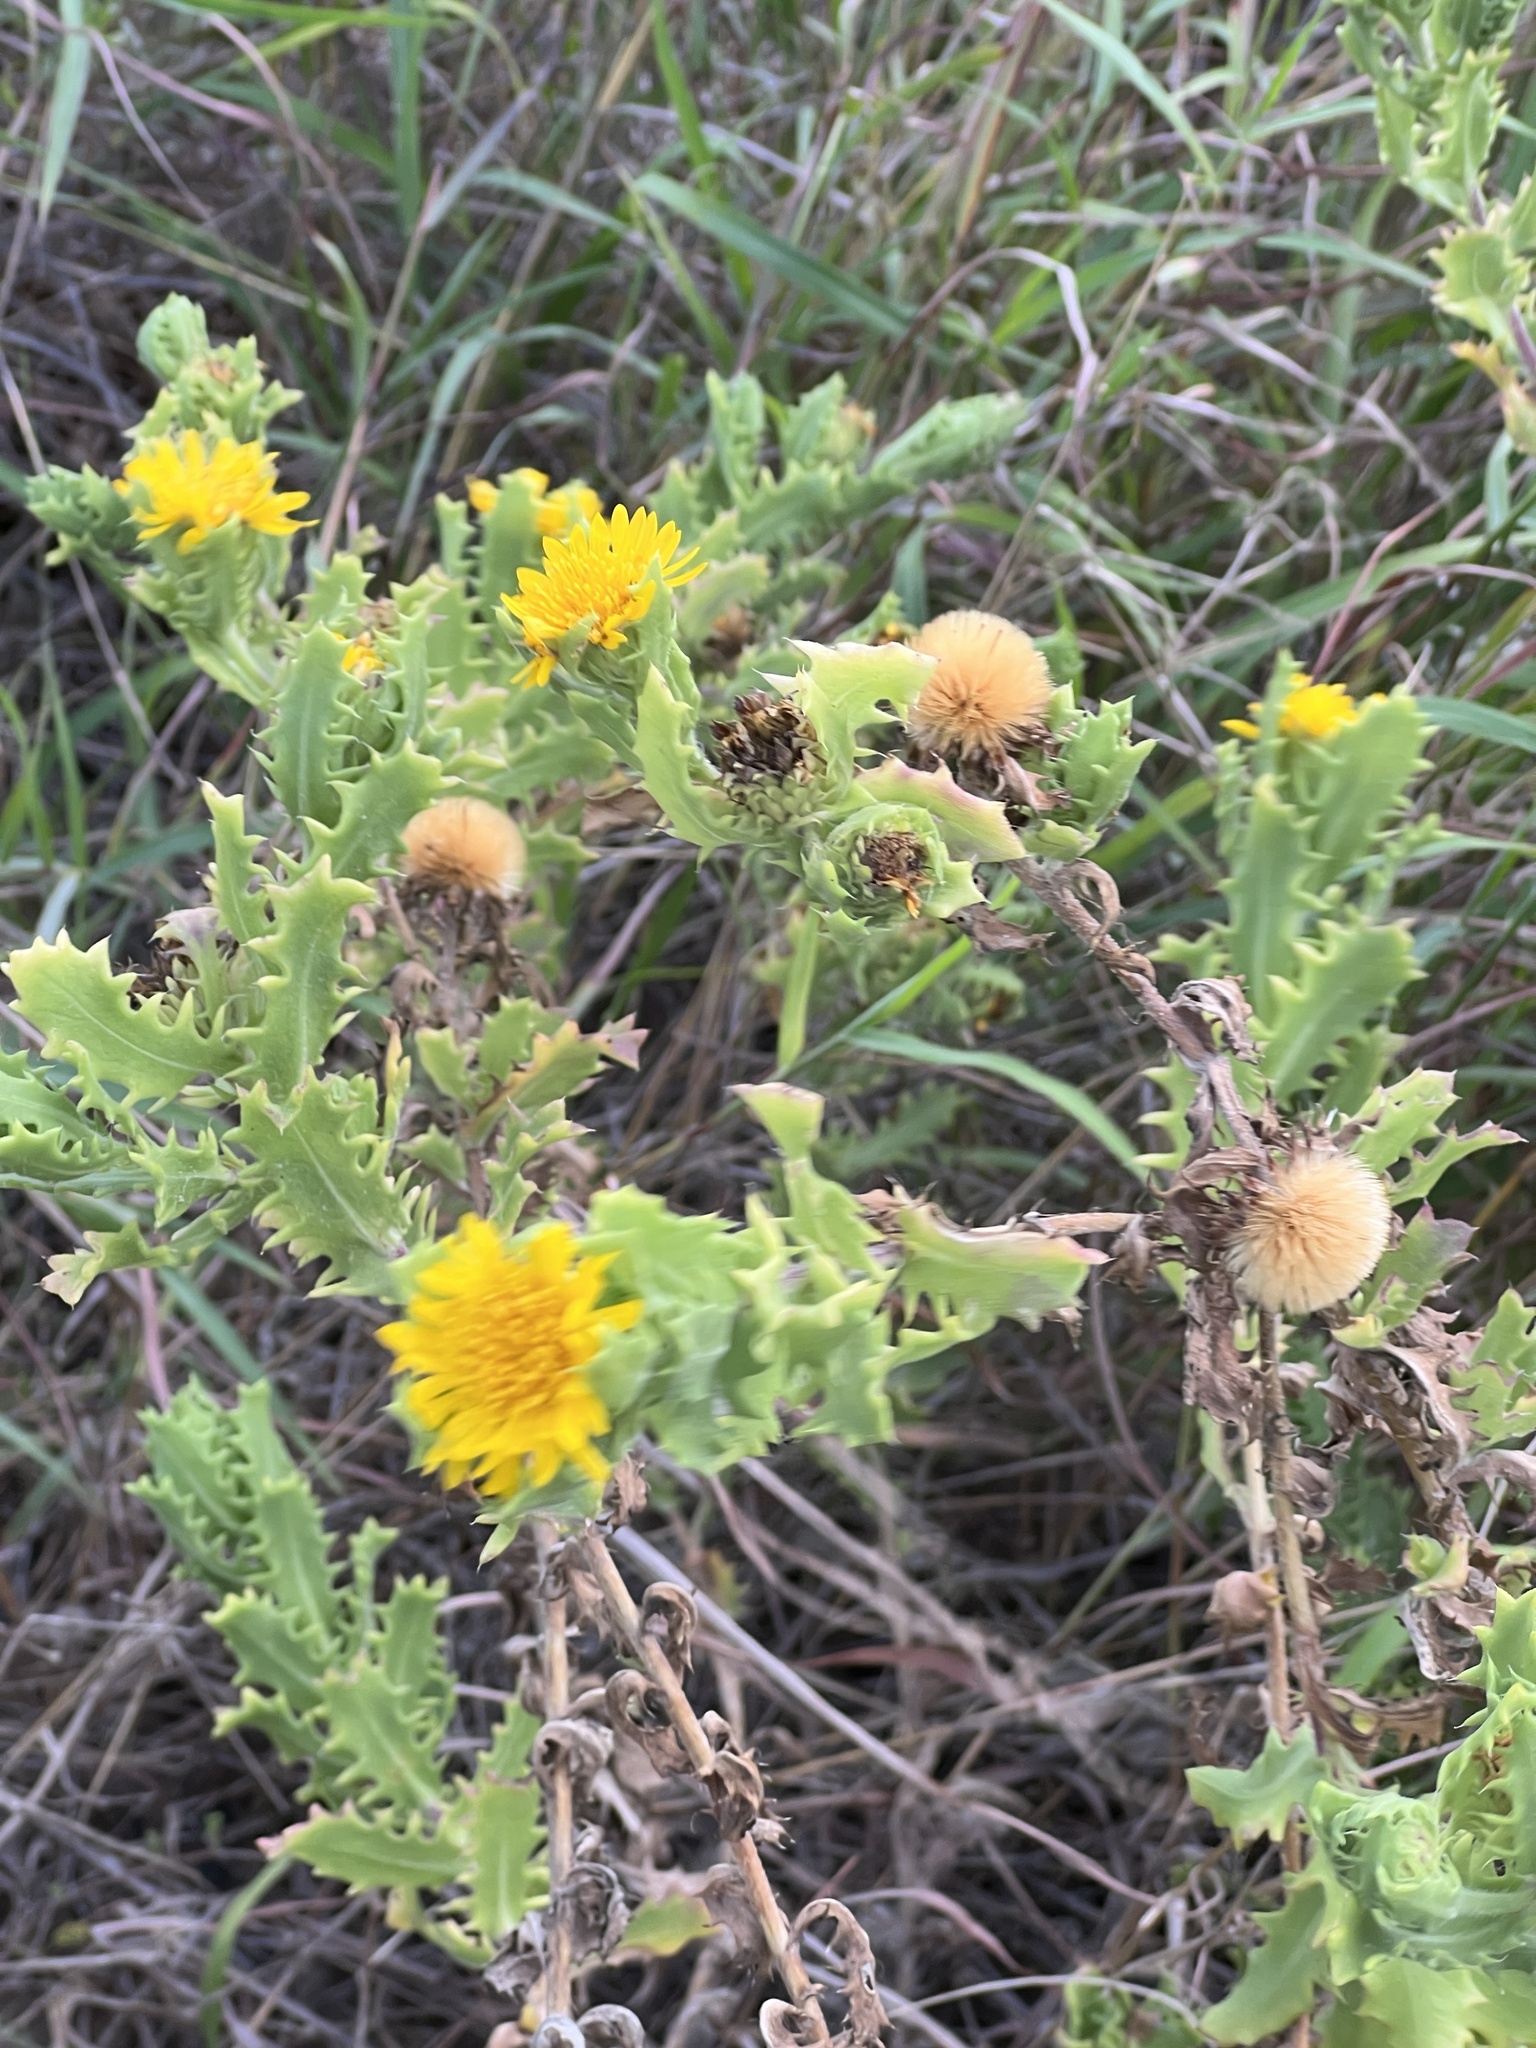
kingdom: Plantae
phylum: Tracheophyta
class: Magnoliopsida
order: Asterales
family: Asteraceae
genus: Rayjacksonia
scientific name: Rayjacksonia phyllocephala
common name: Gulf coast camphor daisy
